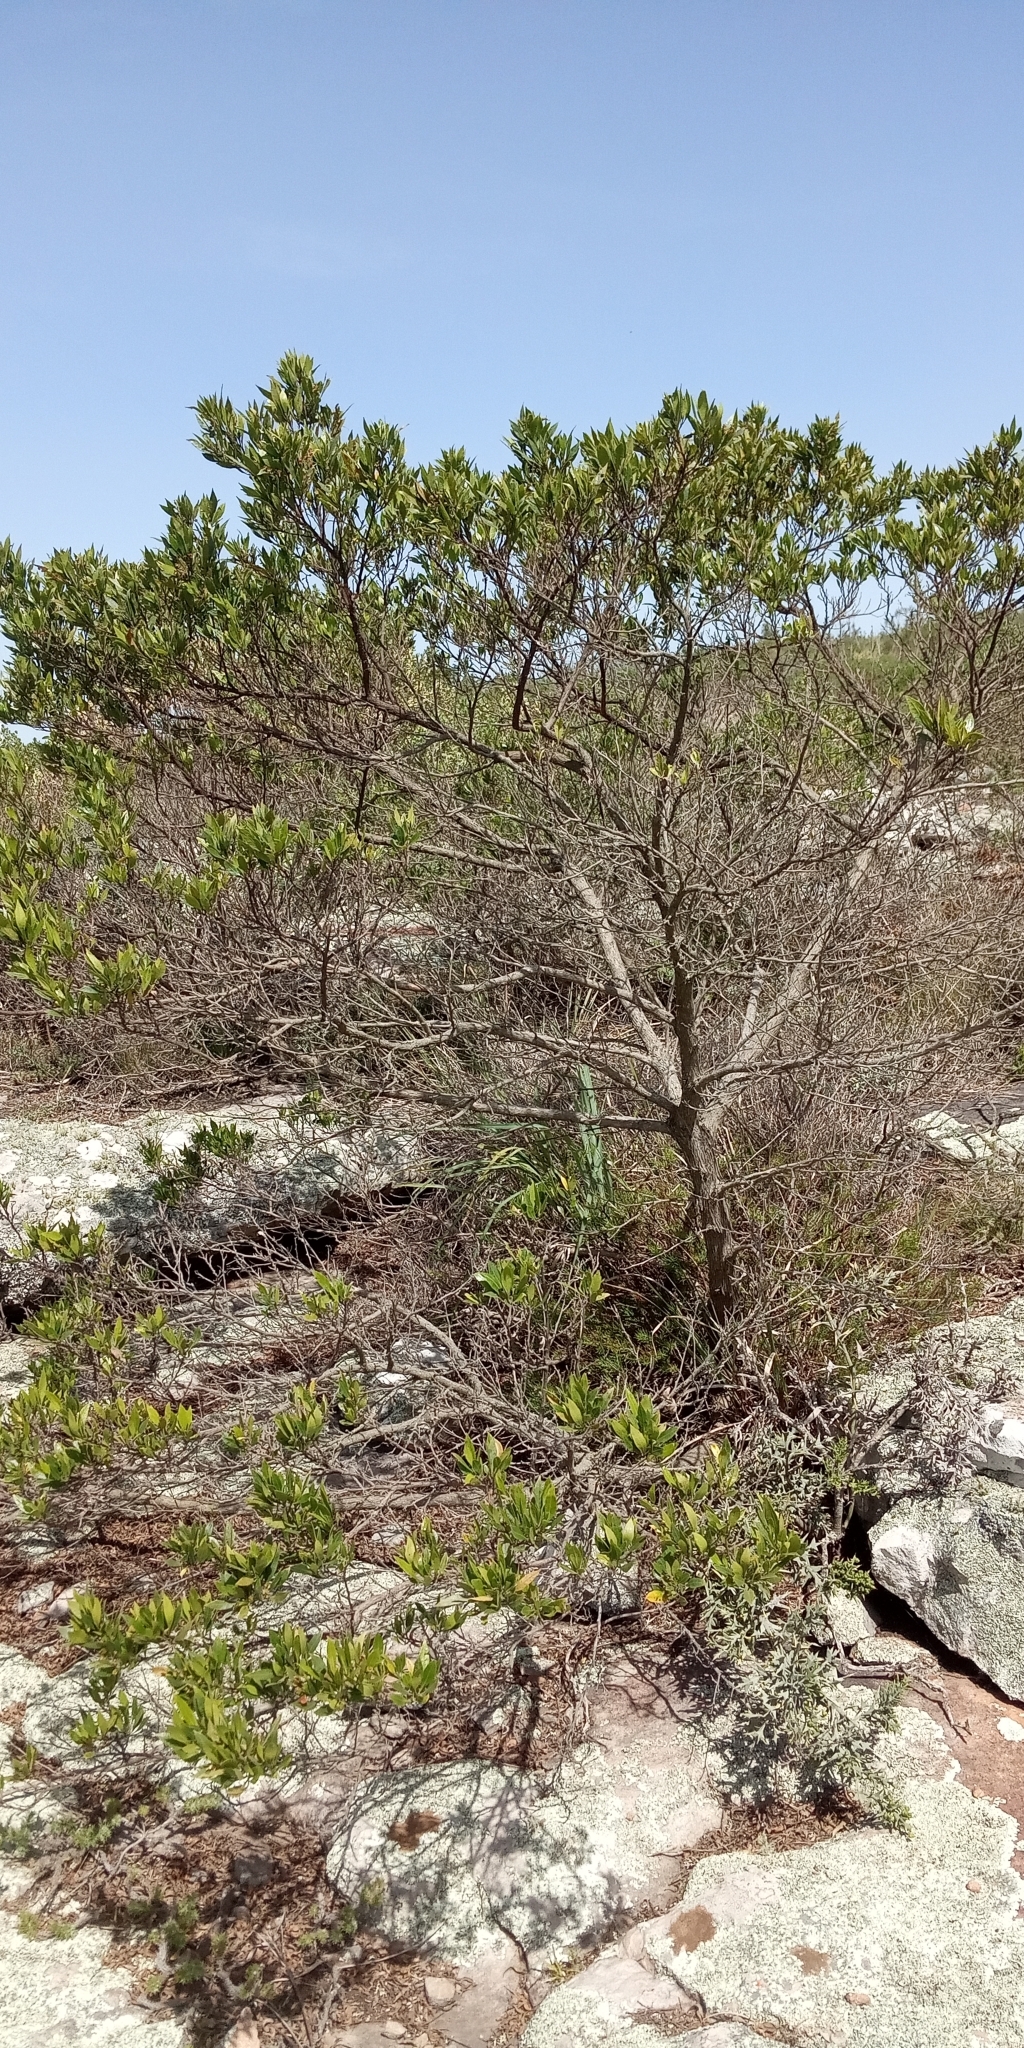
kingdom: Plantae
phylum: Tracheophyta
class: Magnoliopsida
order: Sapindales
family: Sapindaceae
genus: Dodonaea
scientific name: Dodonaea viscosa
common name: Hopbush
